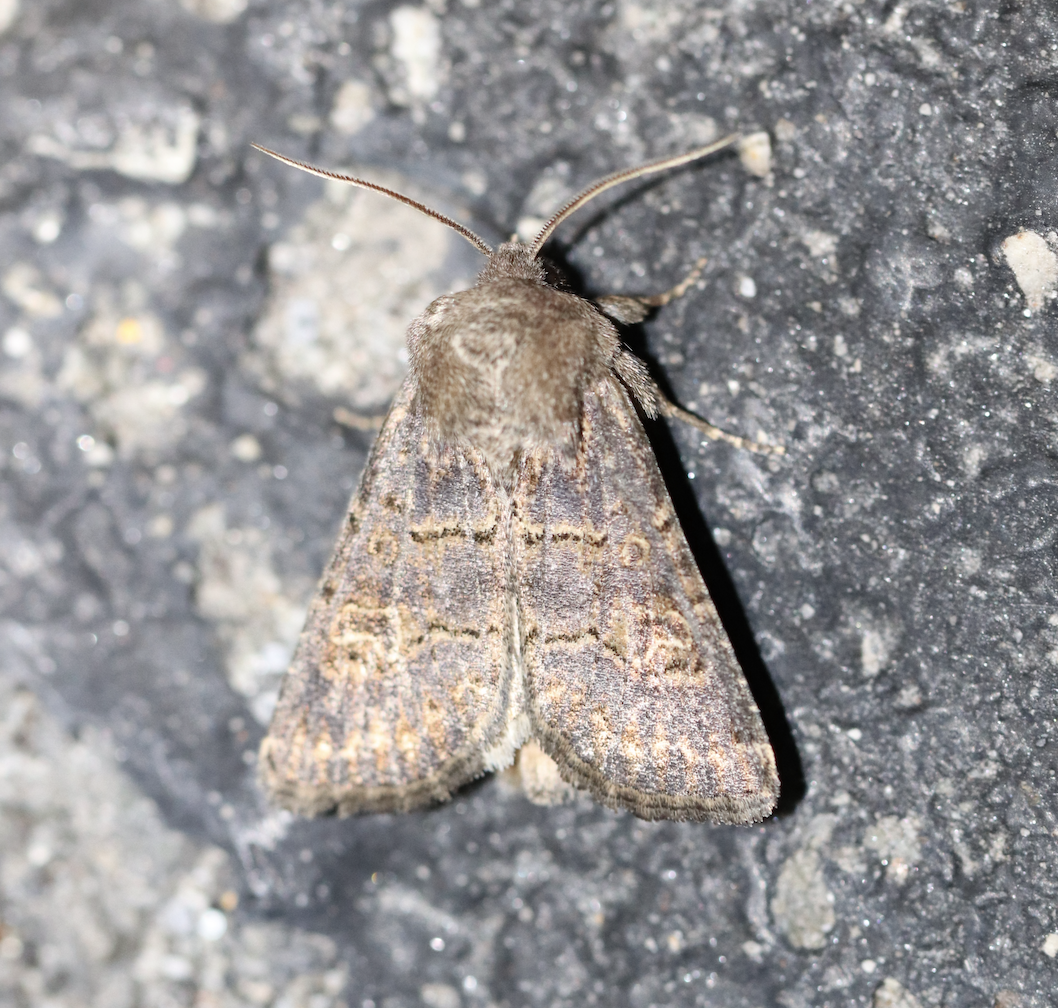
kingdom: Animalia
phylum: Arthropoda
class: Insecta
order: Lepidoptera
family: Noctuidae
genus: Tholera
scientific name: Tholera cespitis
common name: Hedge rustic
